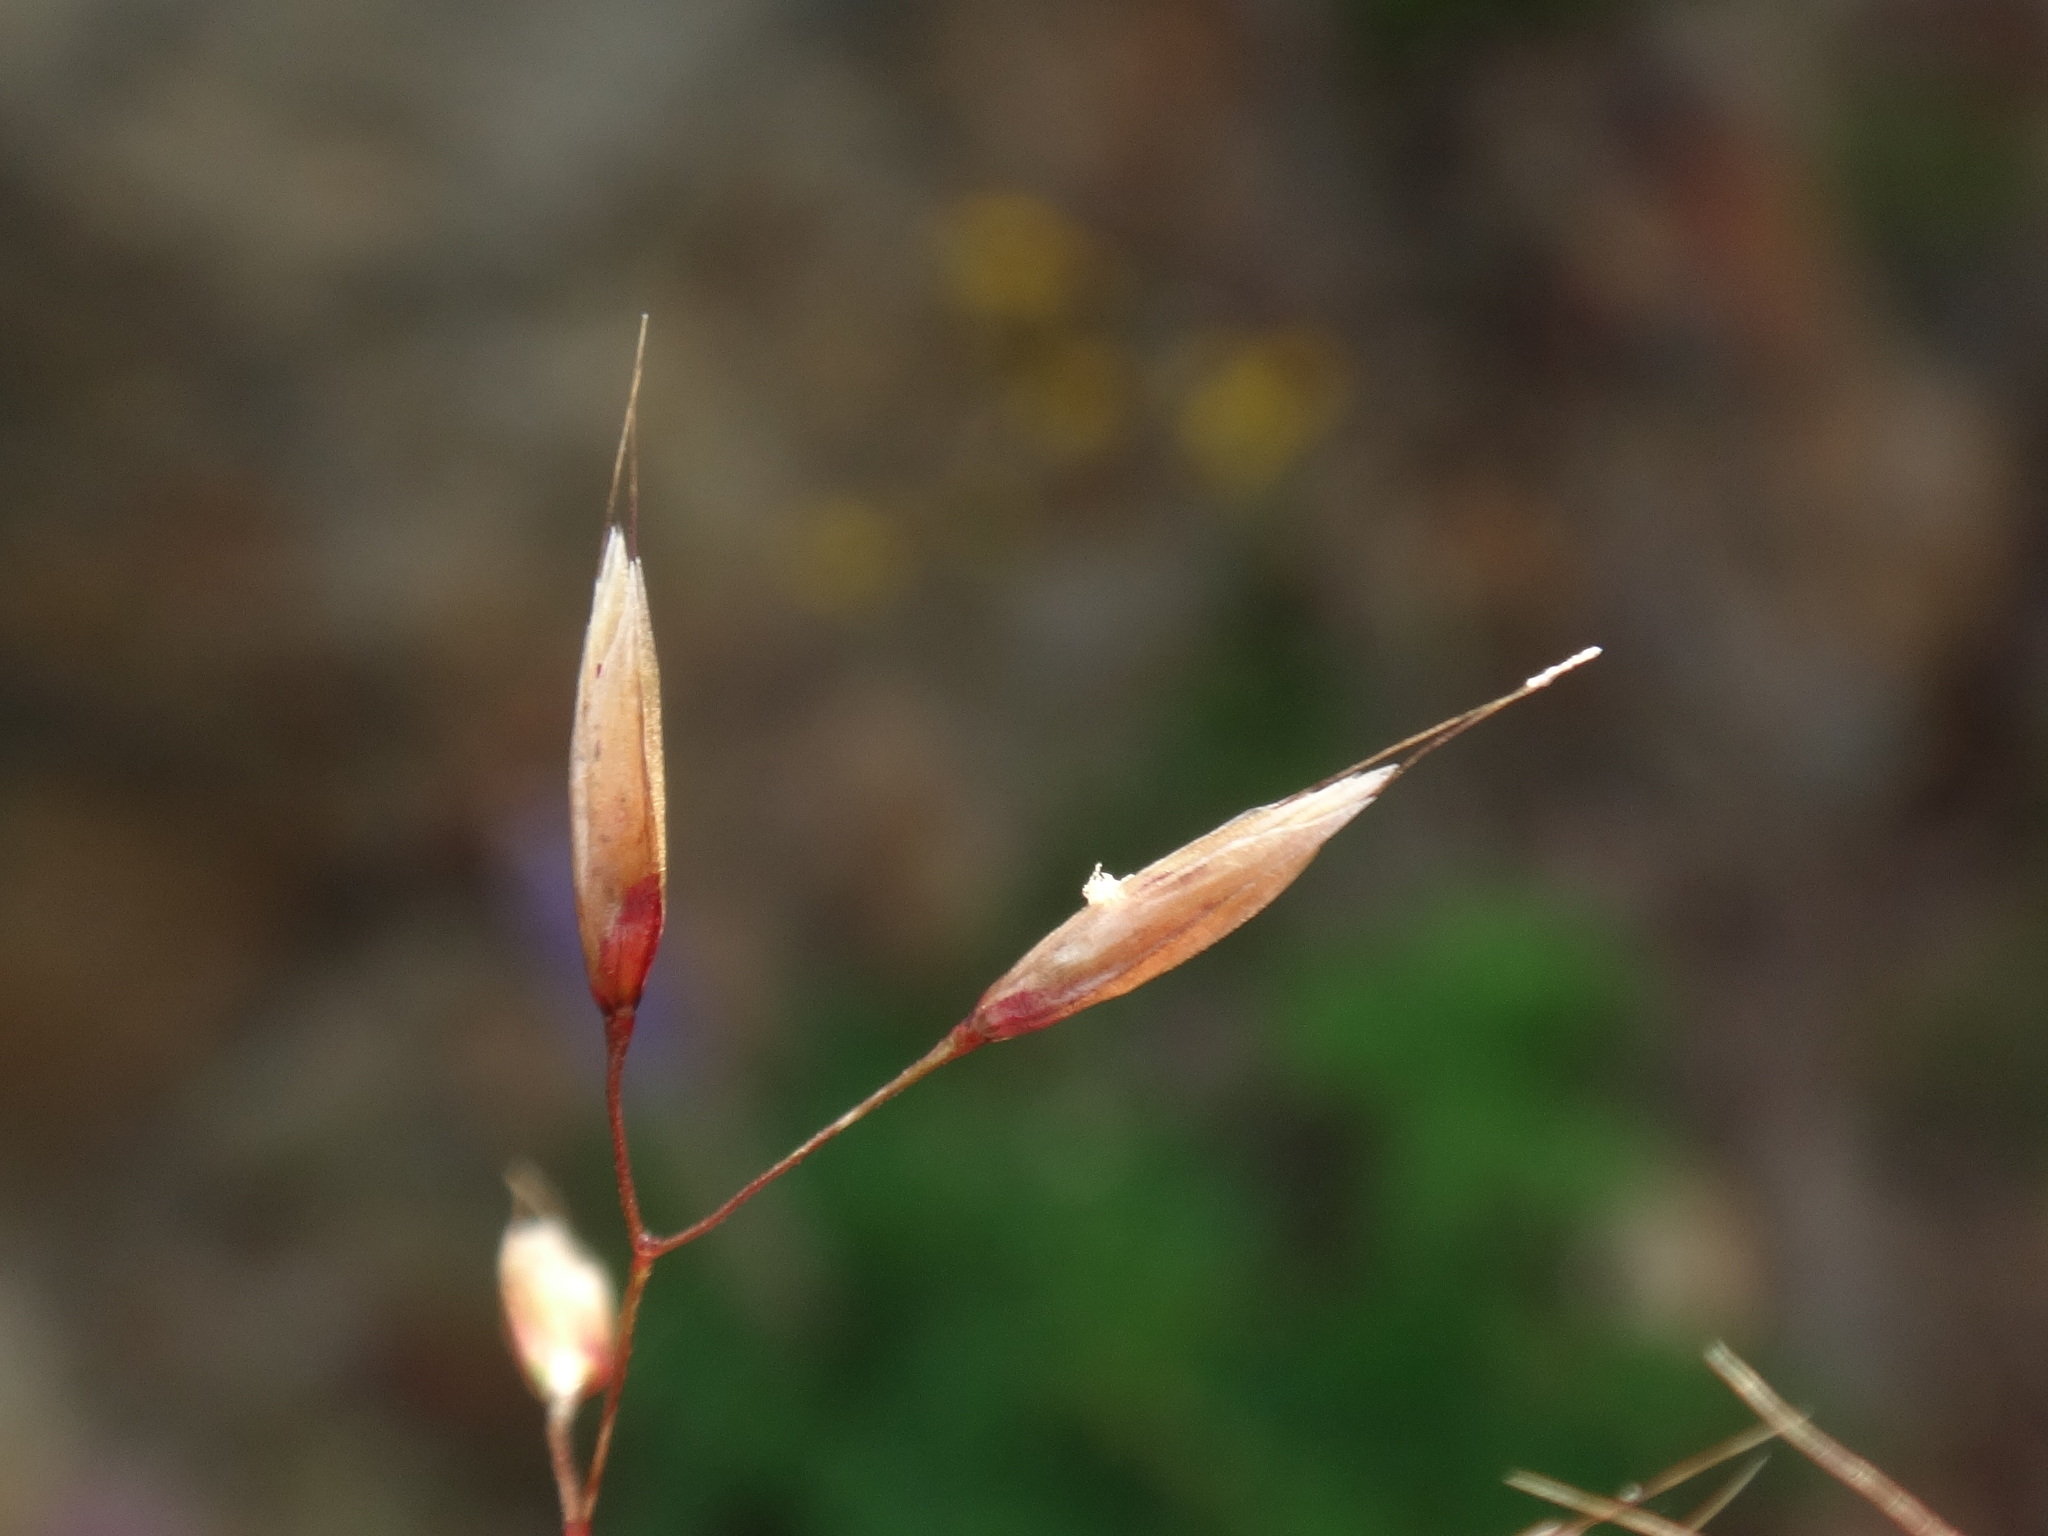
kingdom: Plantae
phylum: Tracheophyta
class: Liliopsida
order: Poales
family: Poaceae
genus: Avenella
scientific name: Avenella flexuosa
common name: Wavy hairgrass
